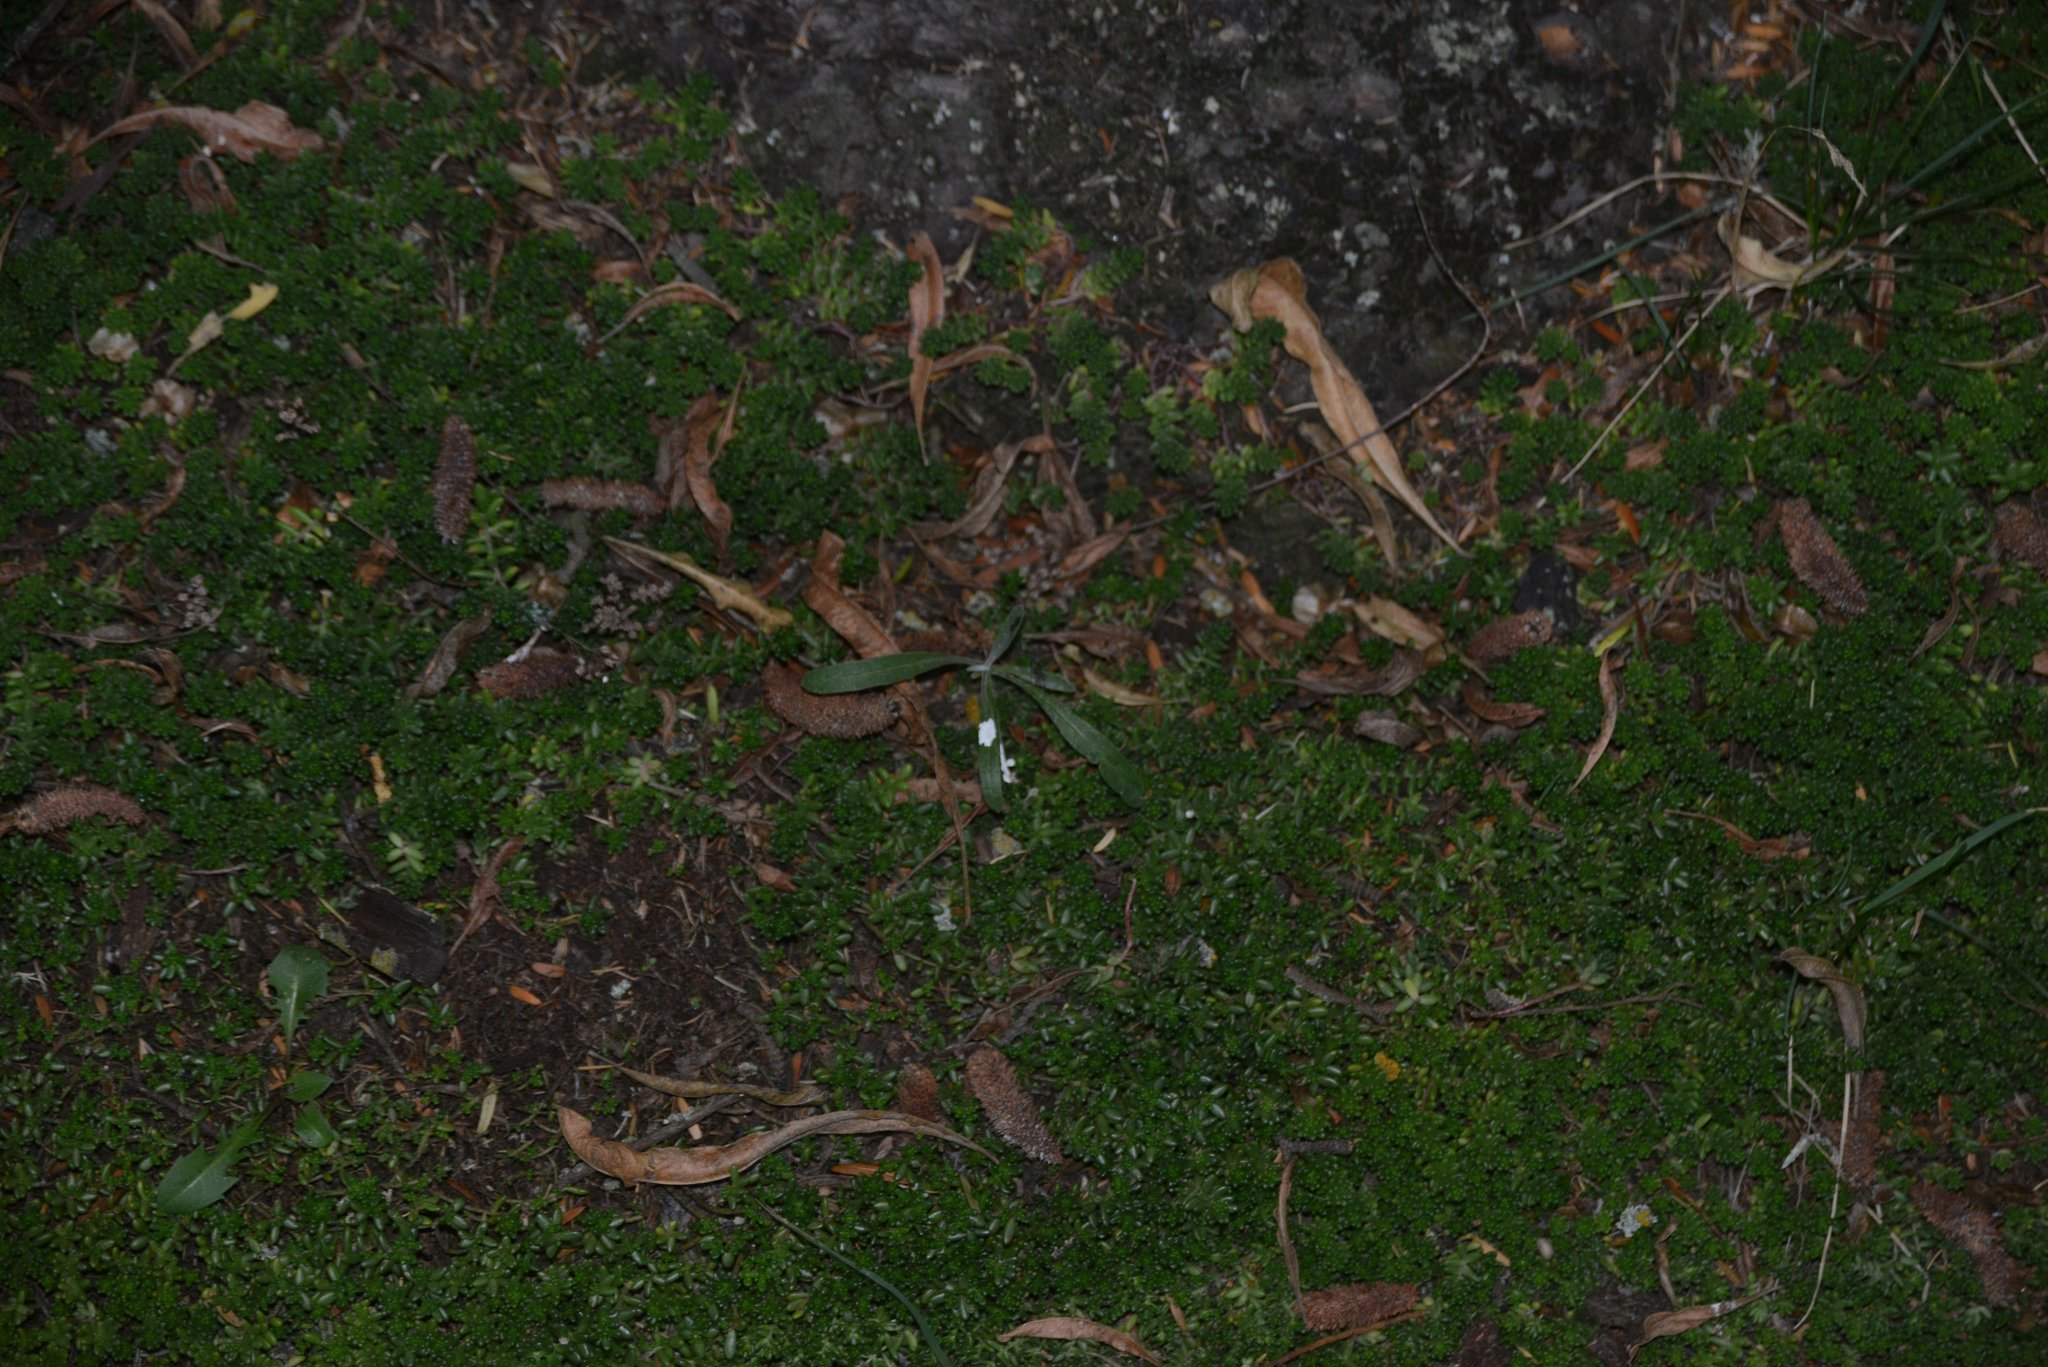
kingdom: Plantae
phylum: Tracheophyta
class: Magnoliopsida
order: Asterales
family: Asteraceae
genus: Senecio
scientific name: Senecio quadridentatus
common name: Cotton fireweed
